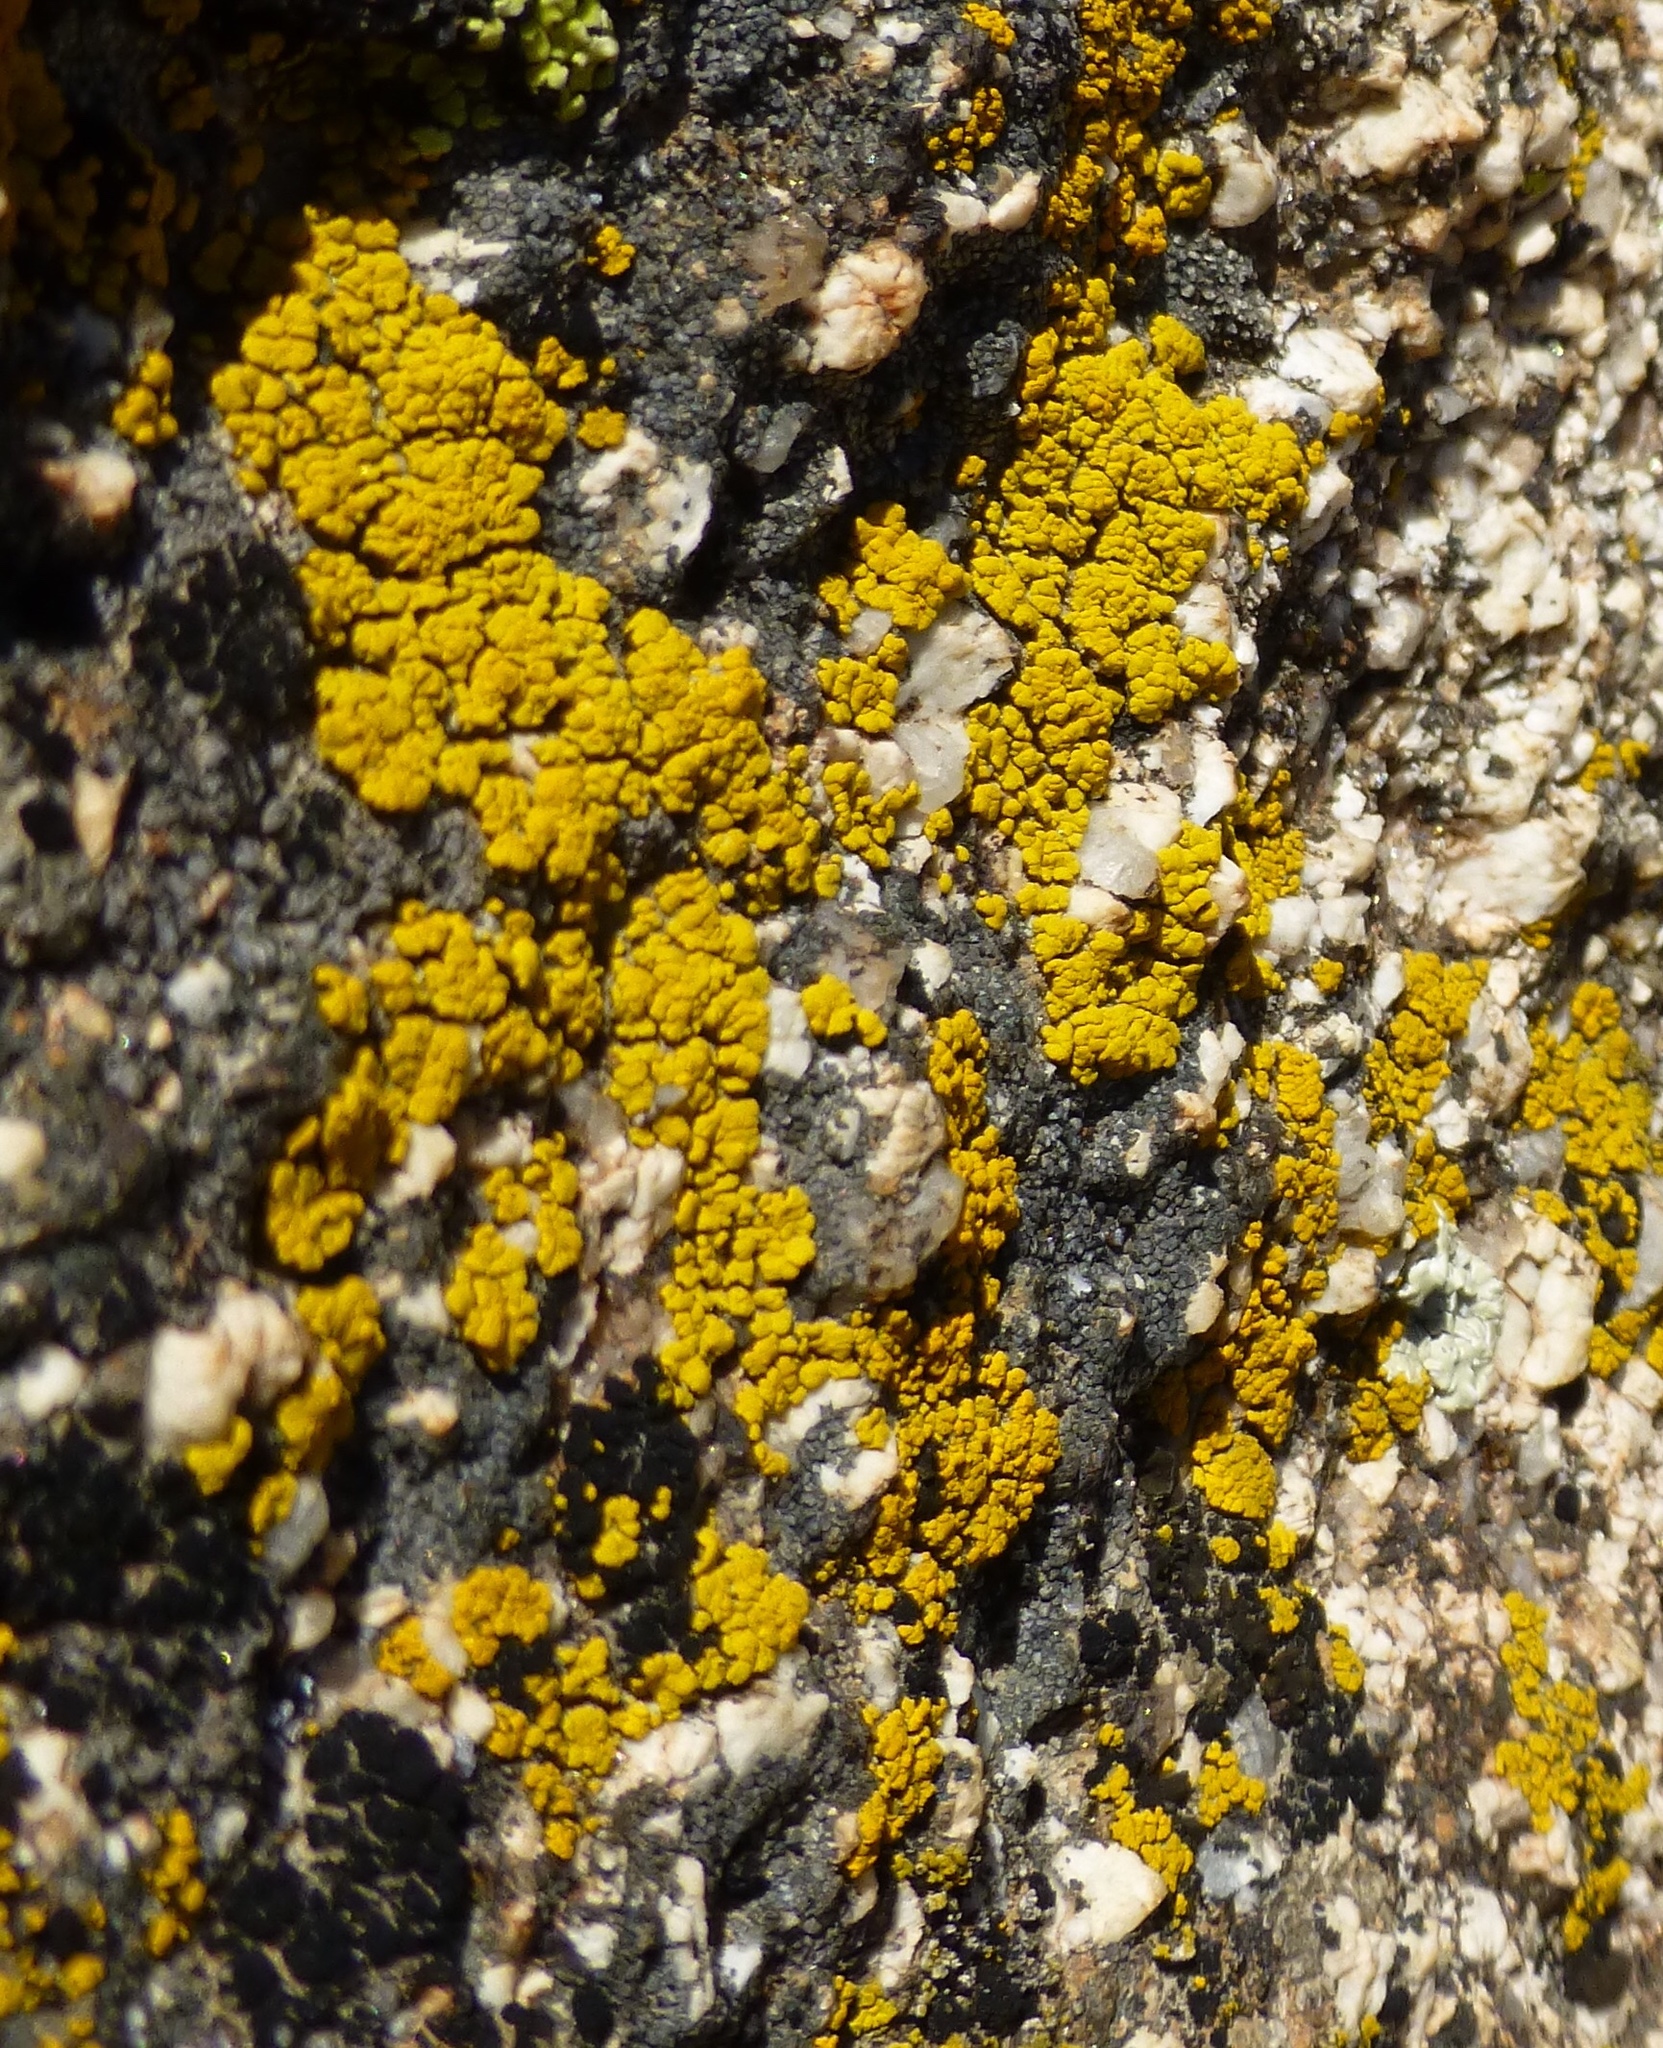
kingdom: Fungi
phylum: Ascomycota
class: Candelariomycetes
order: Candelariales
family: Candelariaceae
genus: Candelariella
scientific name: Candelariella rosulans
